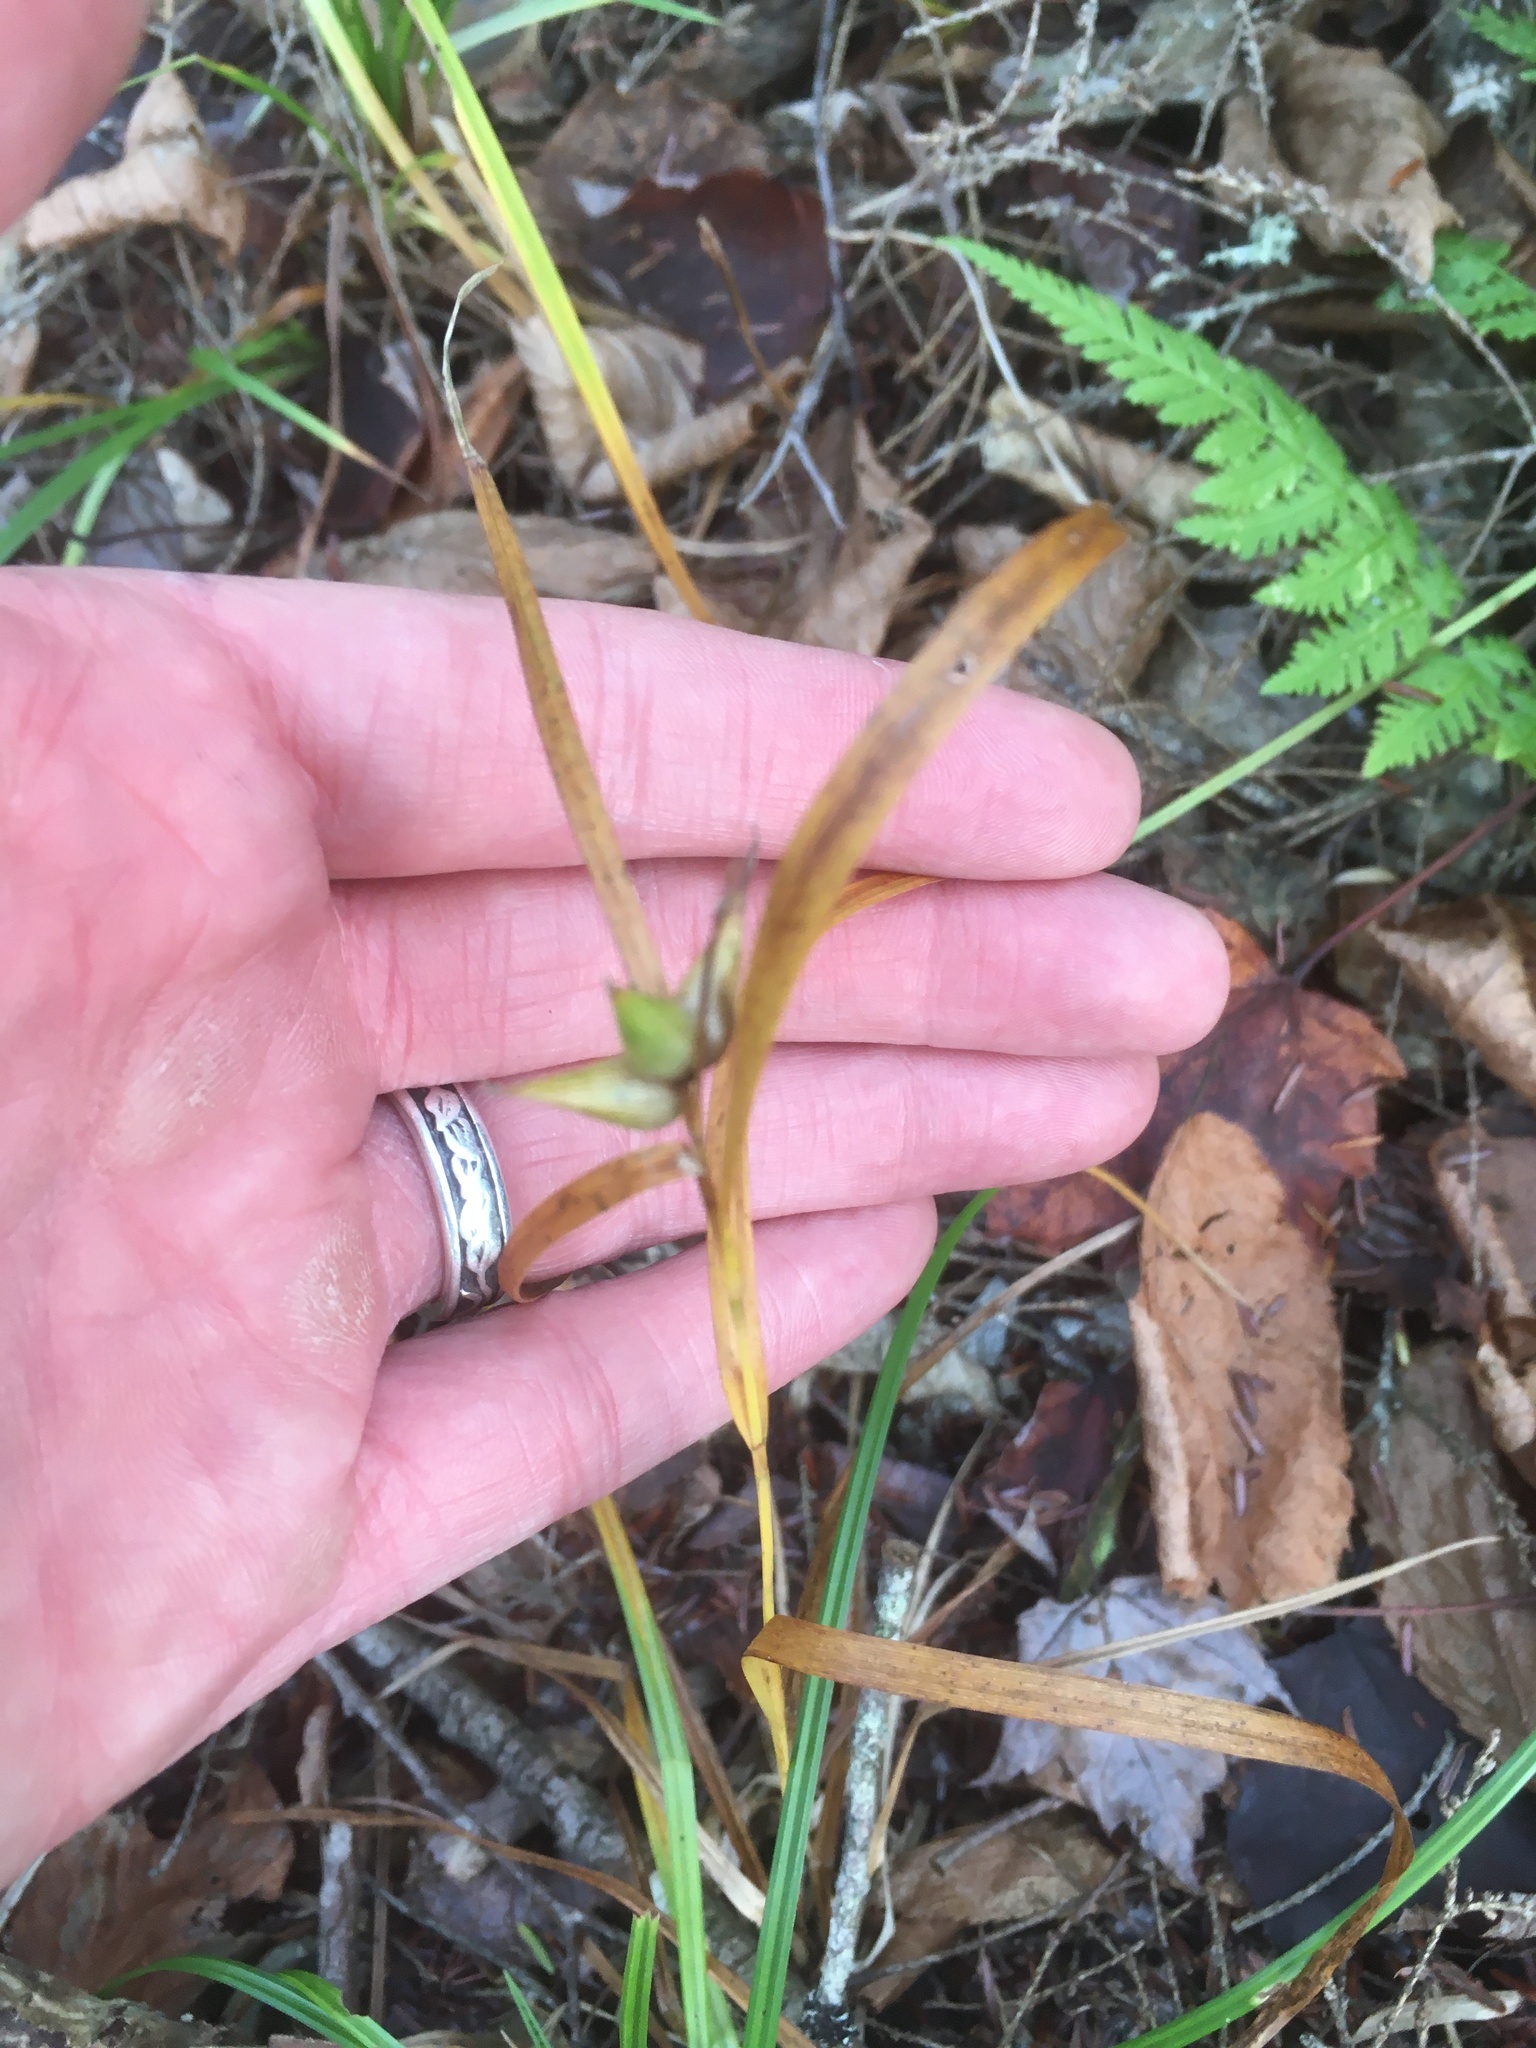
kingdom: Plantae
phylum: Tracheophyta
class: Liliopsida
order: Poales
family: Cyperaceae
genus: Carex
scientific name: Carex intumescens
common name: Greater bladder sedge
